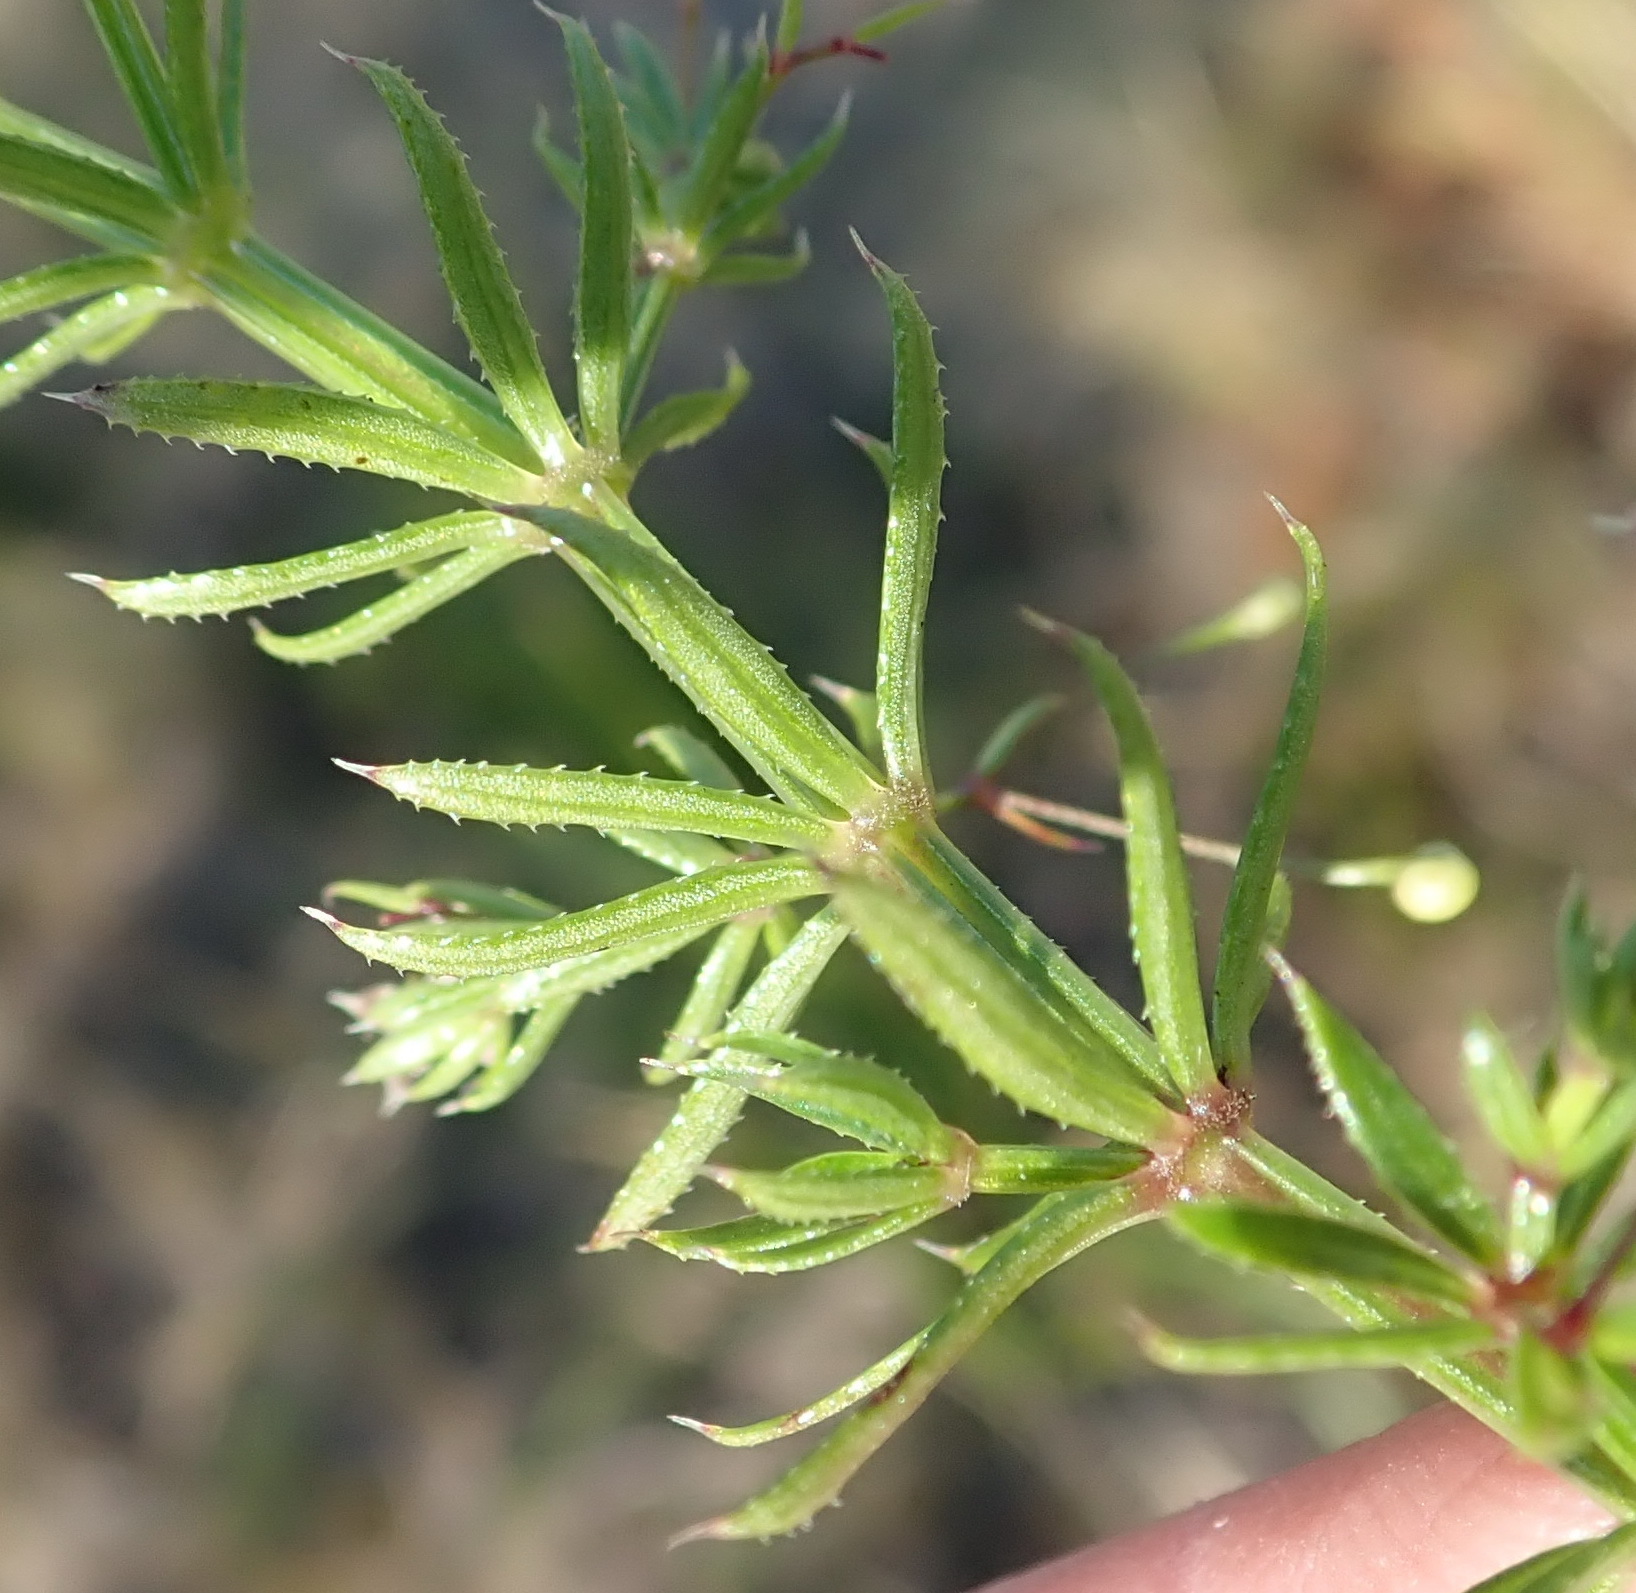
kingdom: Plantae
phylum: Tracheophyta
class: Magnoliopsida
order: Gentianales
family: Rubiaceae
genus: Galium
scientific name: Galium mucroniferum
